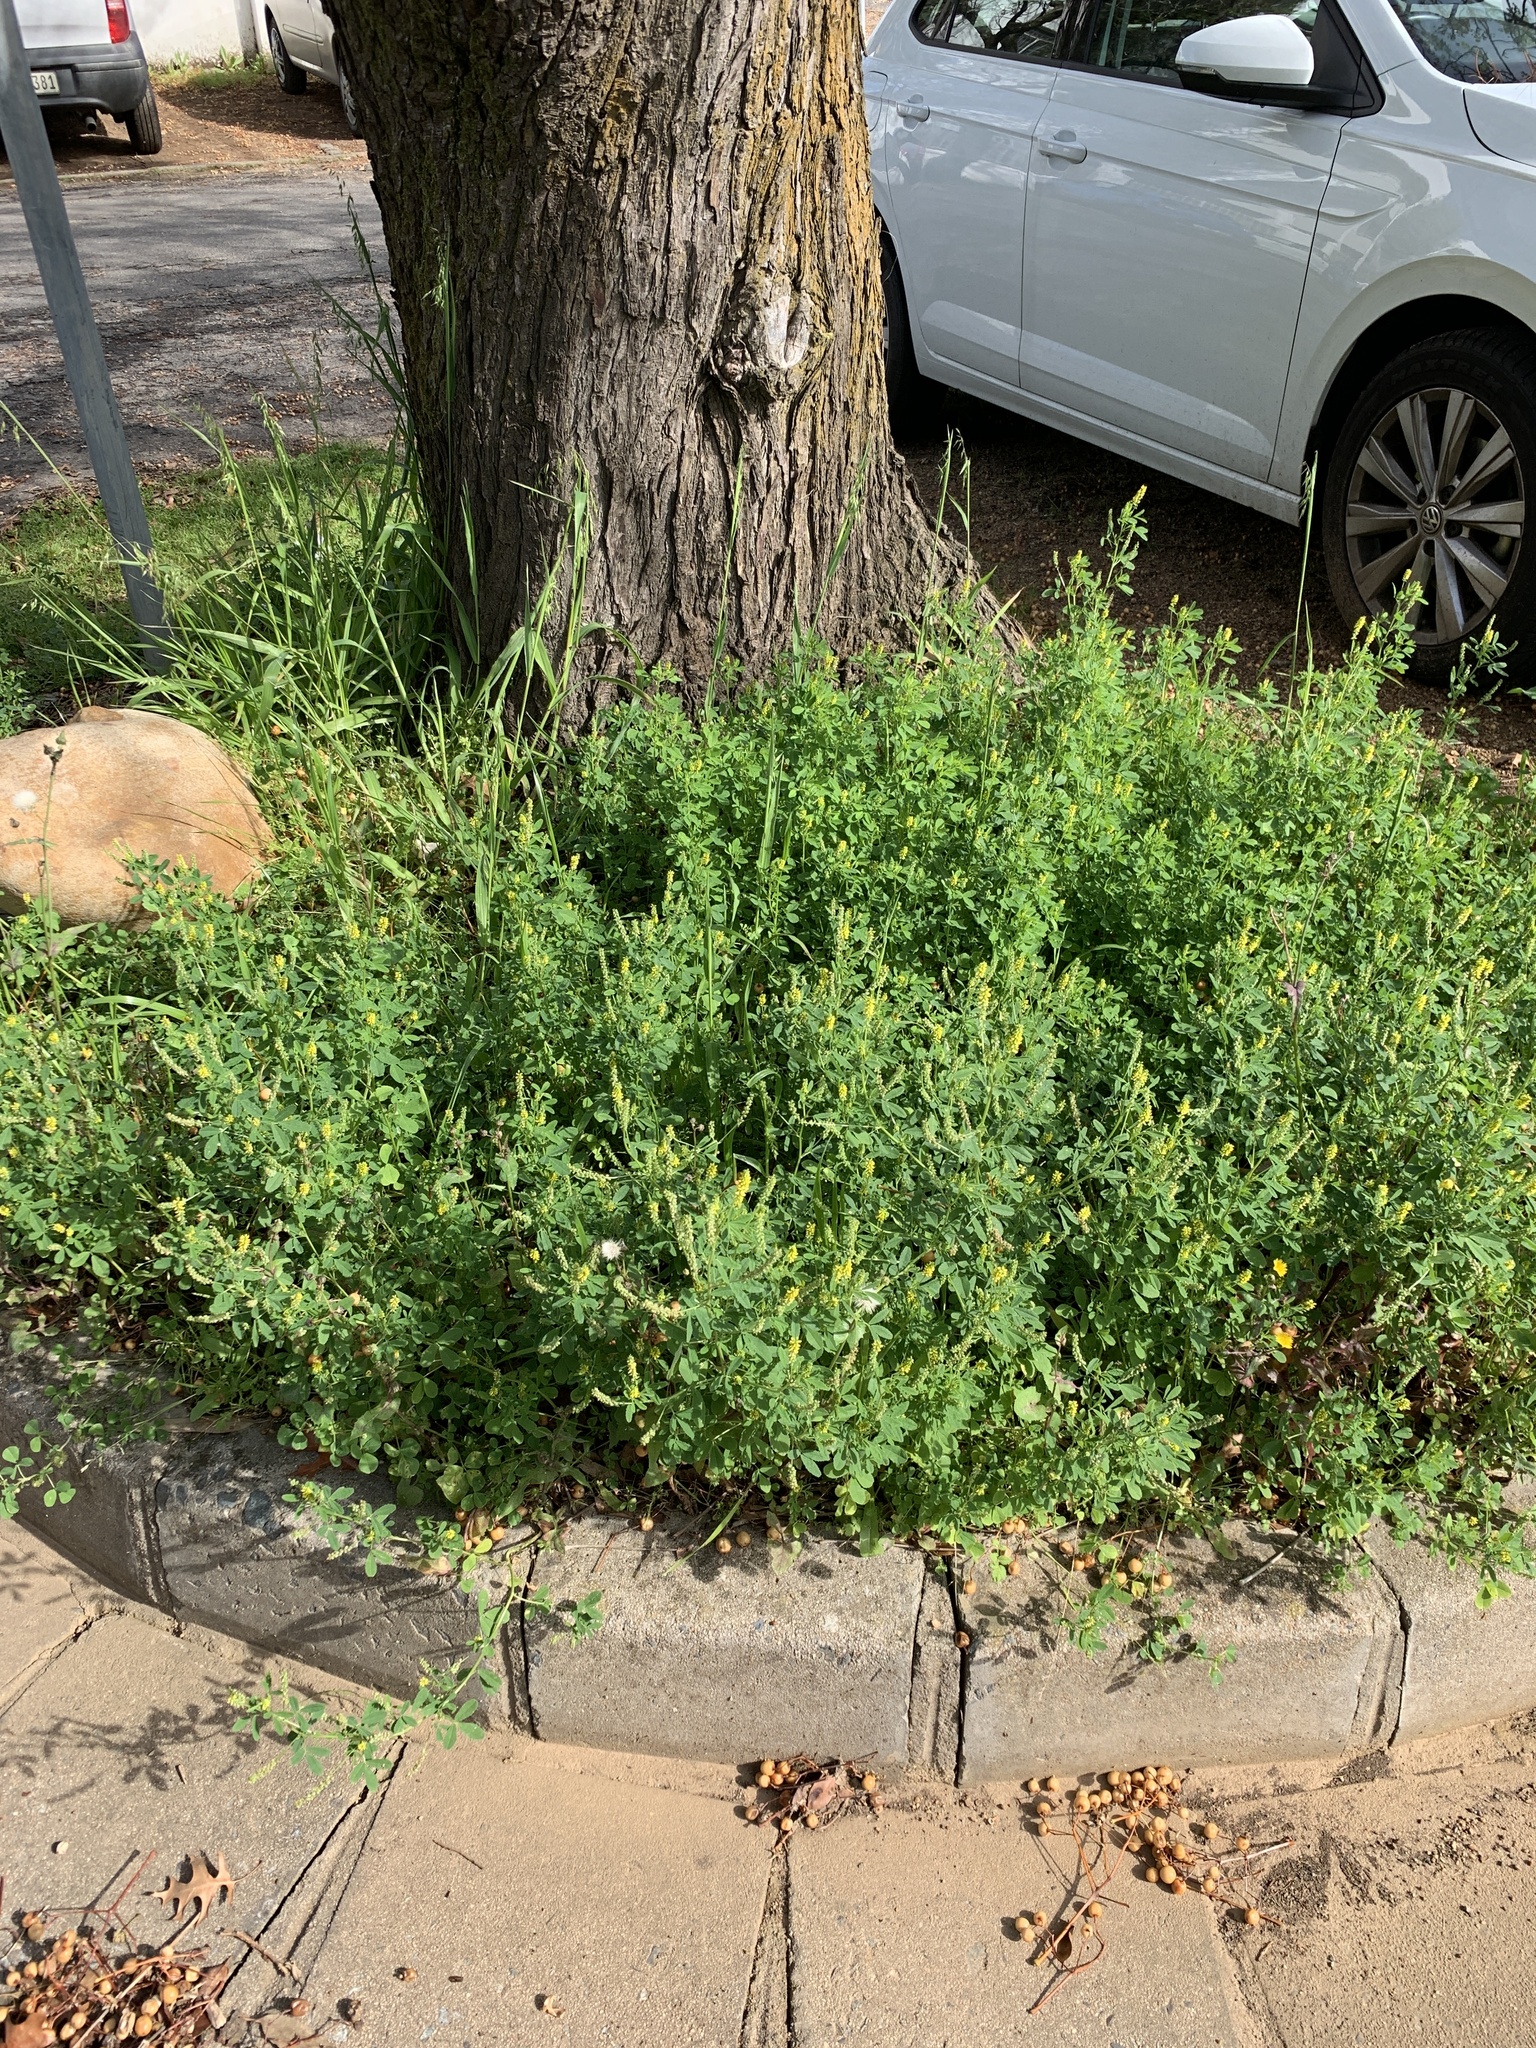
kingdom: Plantae
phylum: Tracheophyta
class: Magnoliopsida
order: Fabales
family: Fabaceae
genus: Melilotus
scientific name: Melilotus indicus
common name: Small melilot
